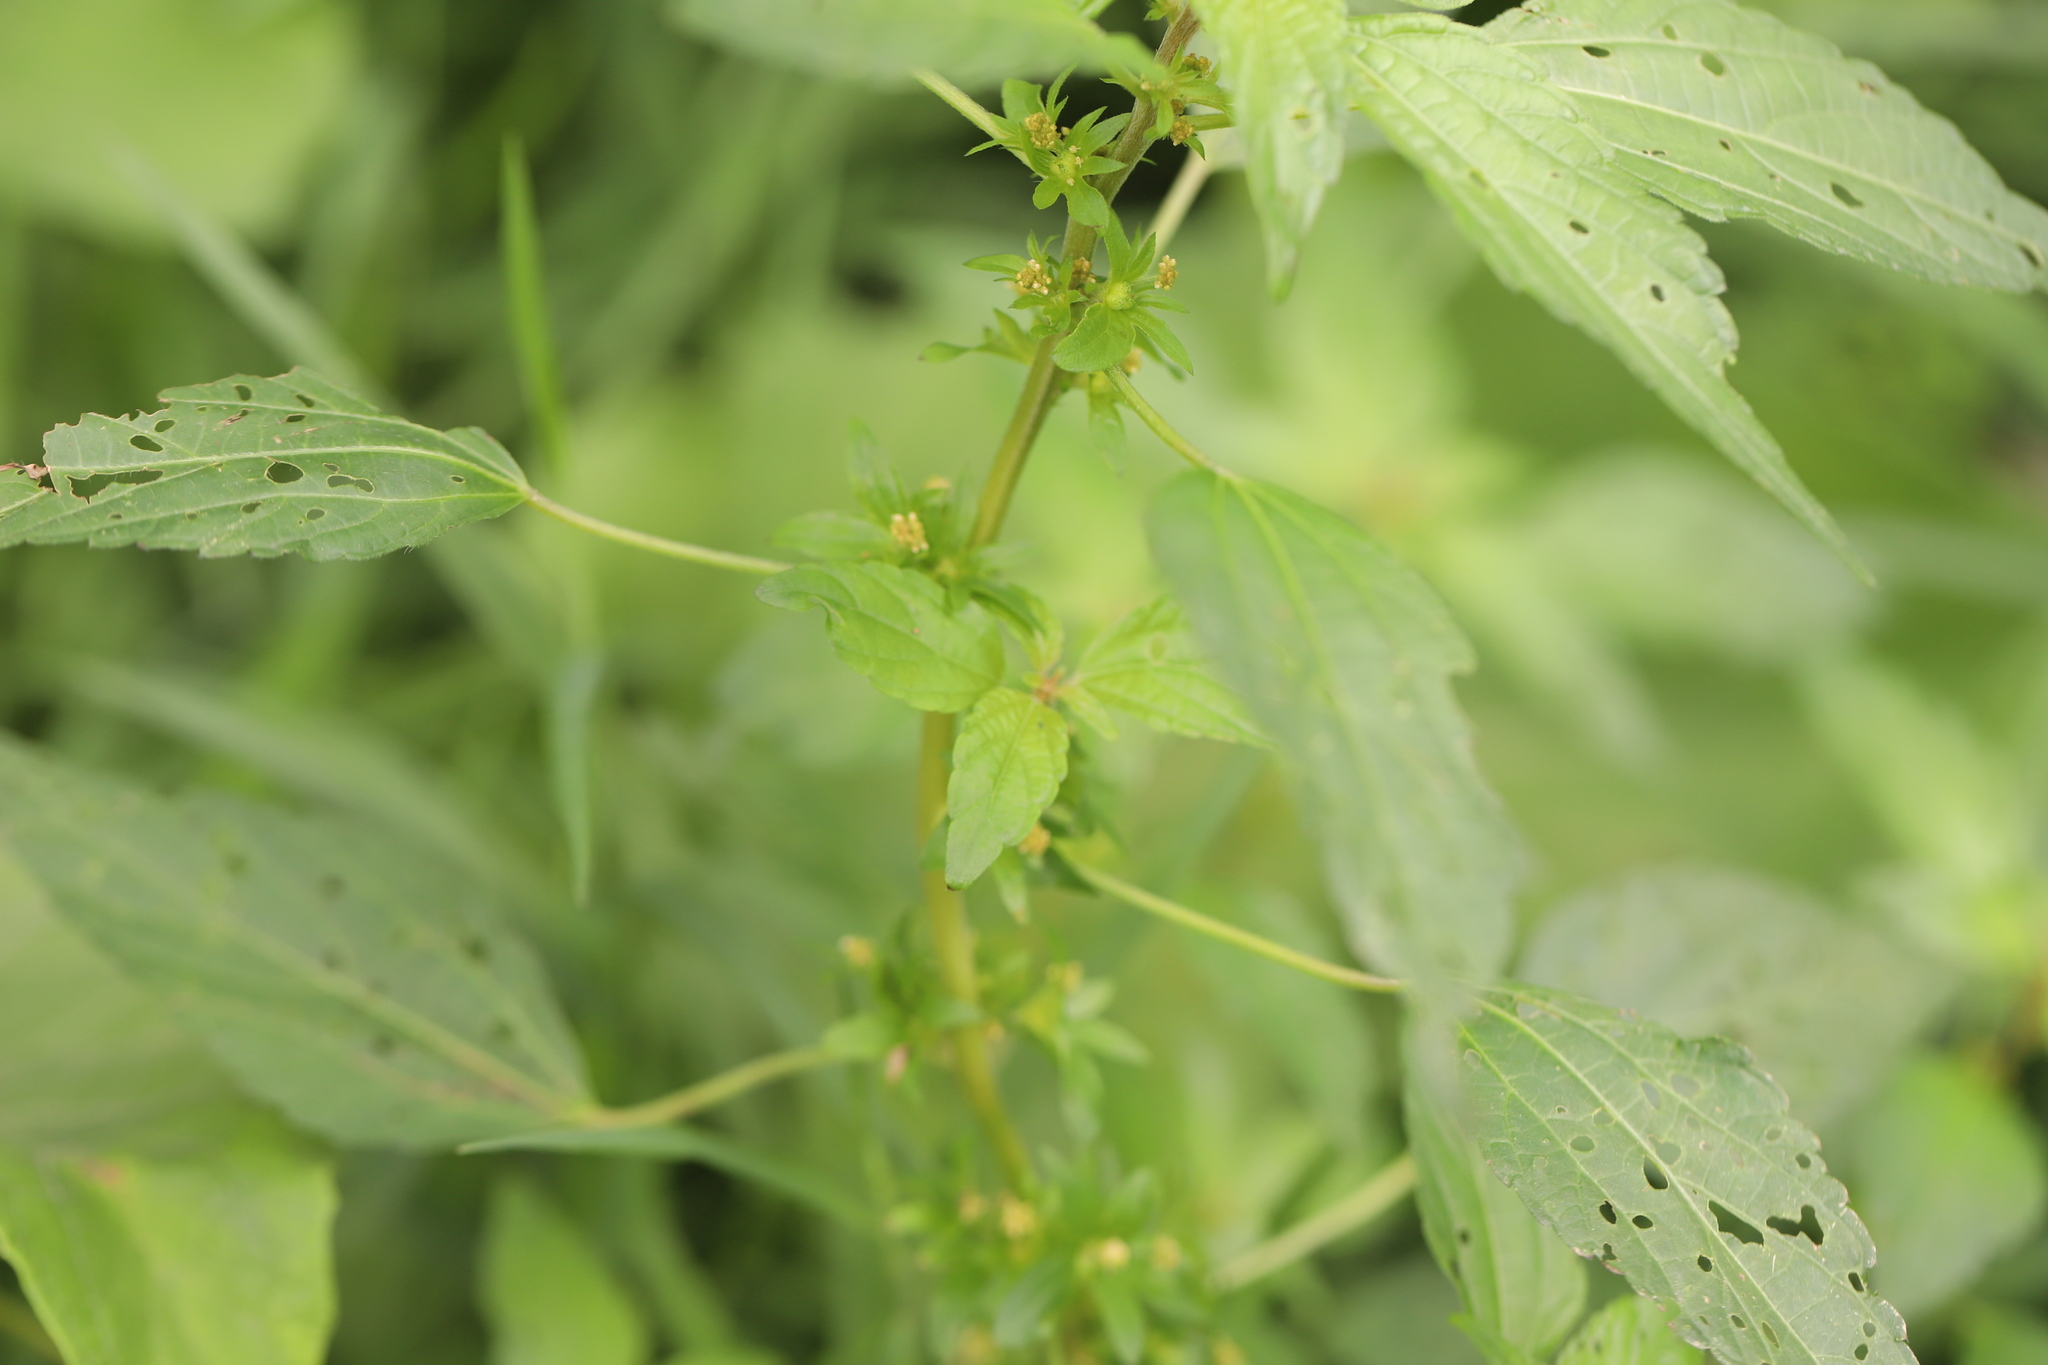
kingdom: Plantae
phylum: Tracheophyta
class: Magnoliopsida
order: Malpighiales
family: Euphorbiaceae
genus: Acalypha
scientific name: Acalypha rhomboidea
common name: Rhombic copperleaf
